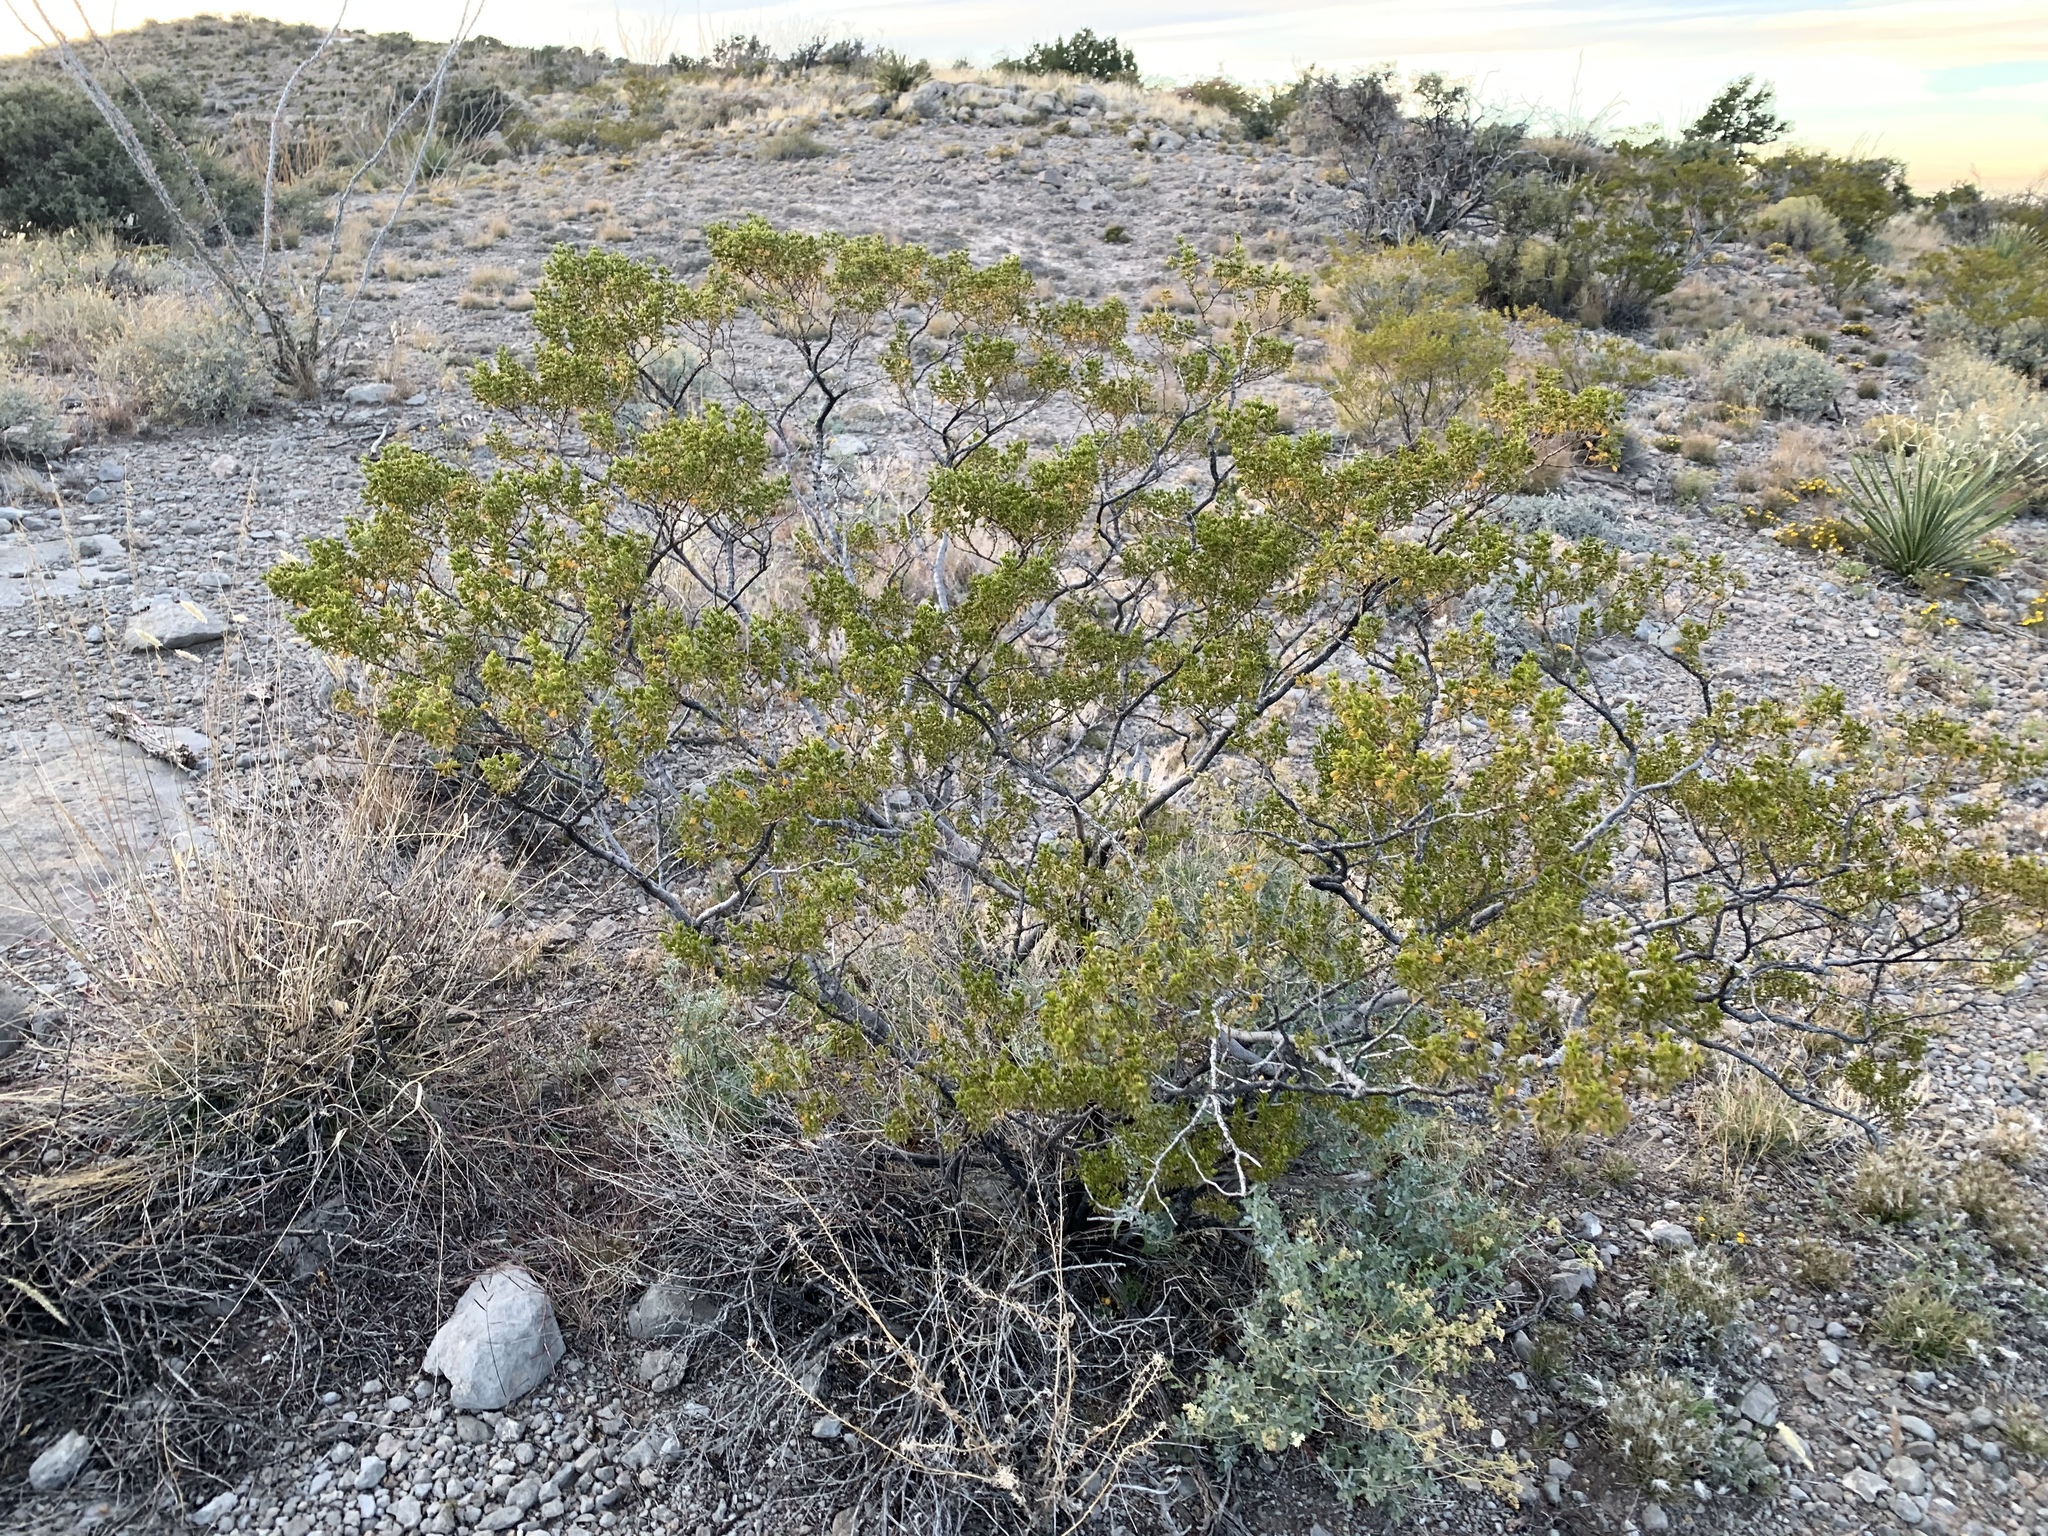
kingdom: Plantae
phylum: Tracheophyta
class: Magnoliopsida
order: Zygophyllales
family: Zygophyllaceae
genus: Larrea
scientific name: Larrea tridentata
